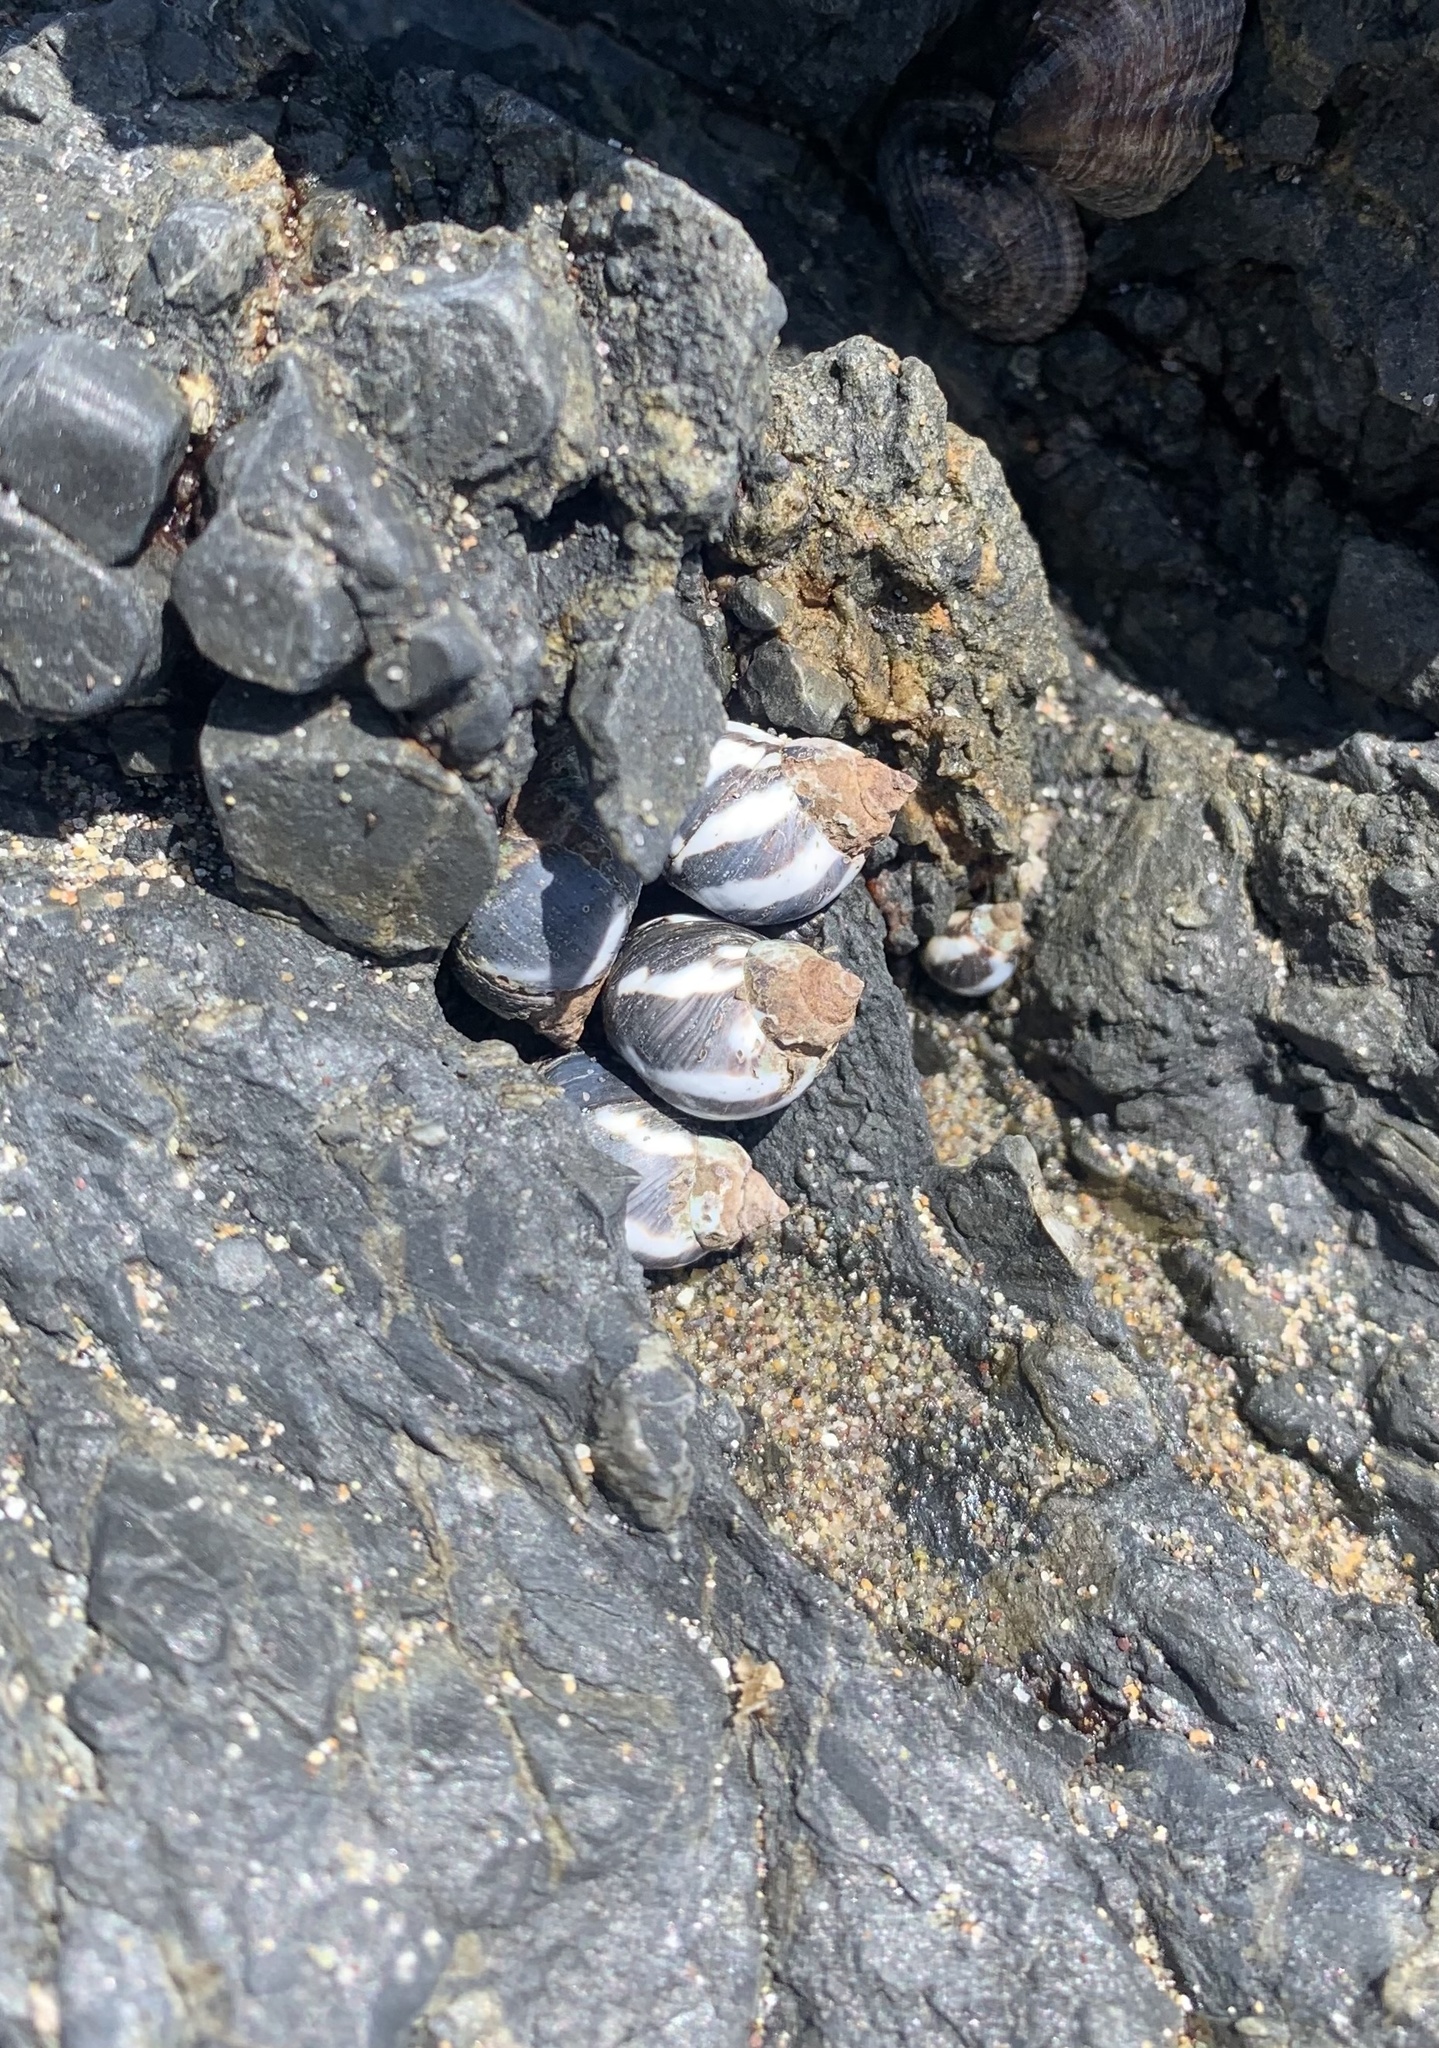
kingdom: Animalia
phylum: Mollusca
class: Gastropoda
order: Littorinimorpha
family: Littorinidae
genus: Echinolittorina
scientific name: Echinolittorina peruviana
